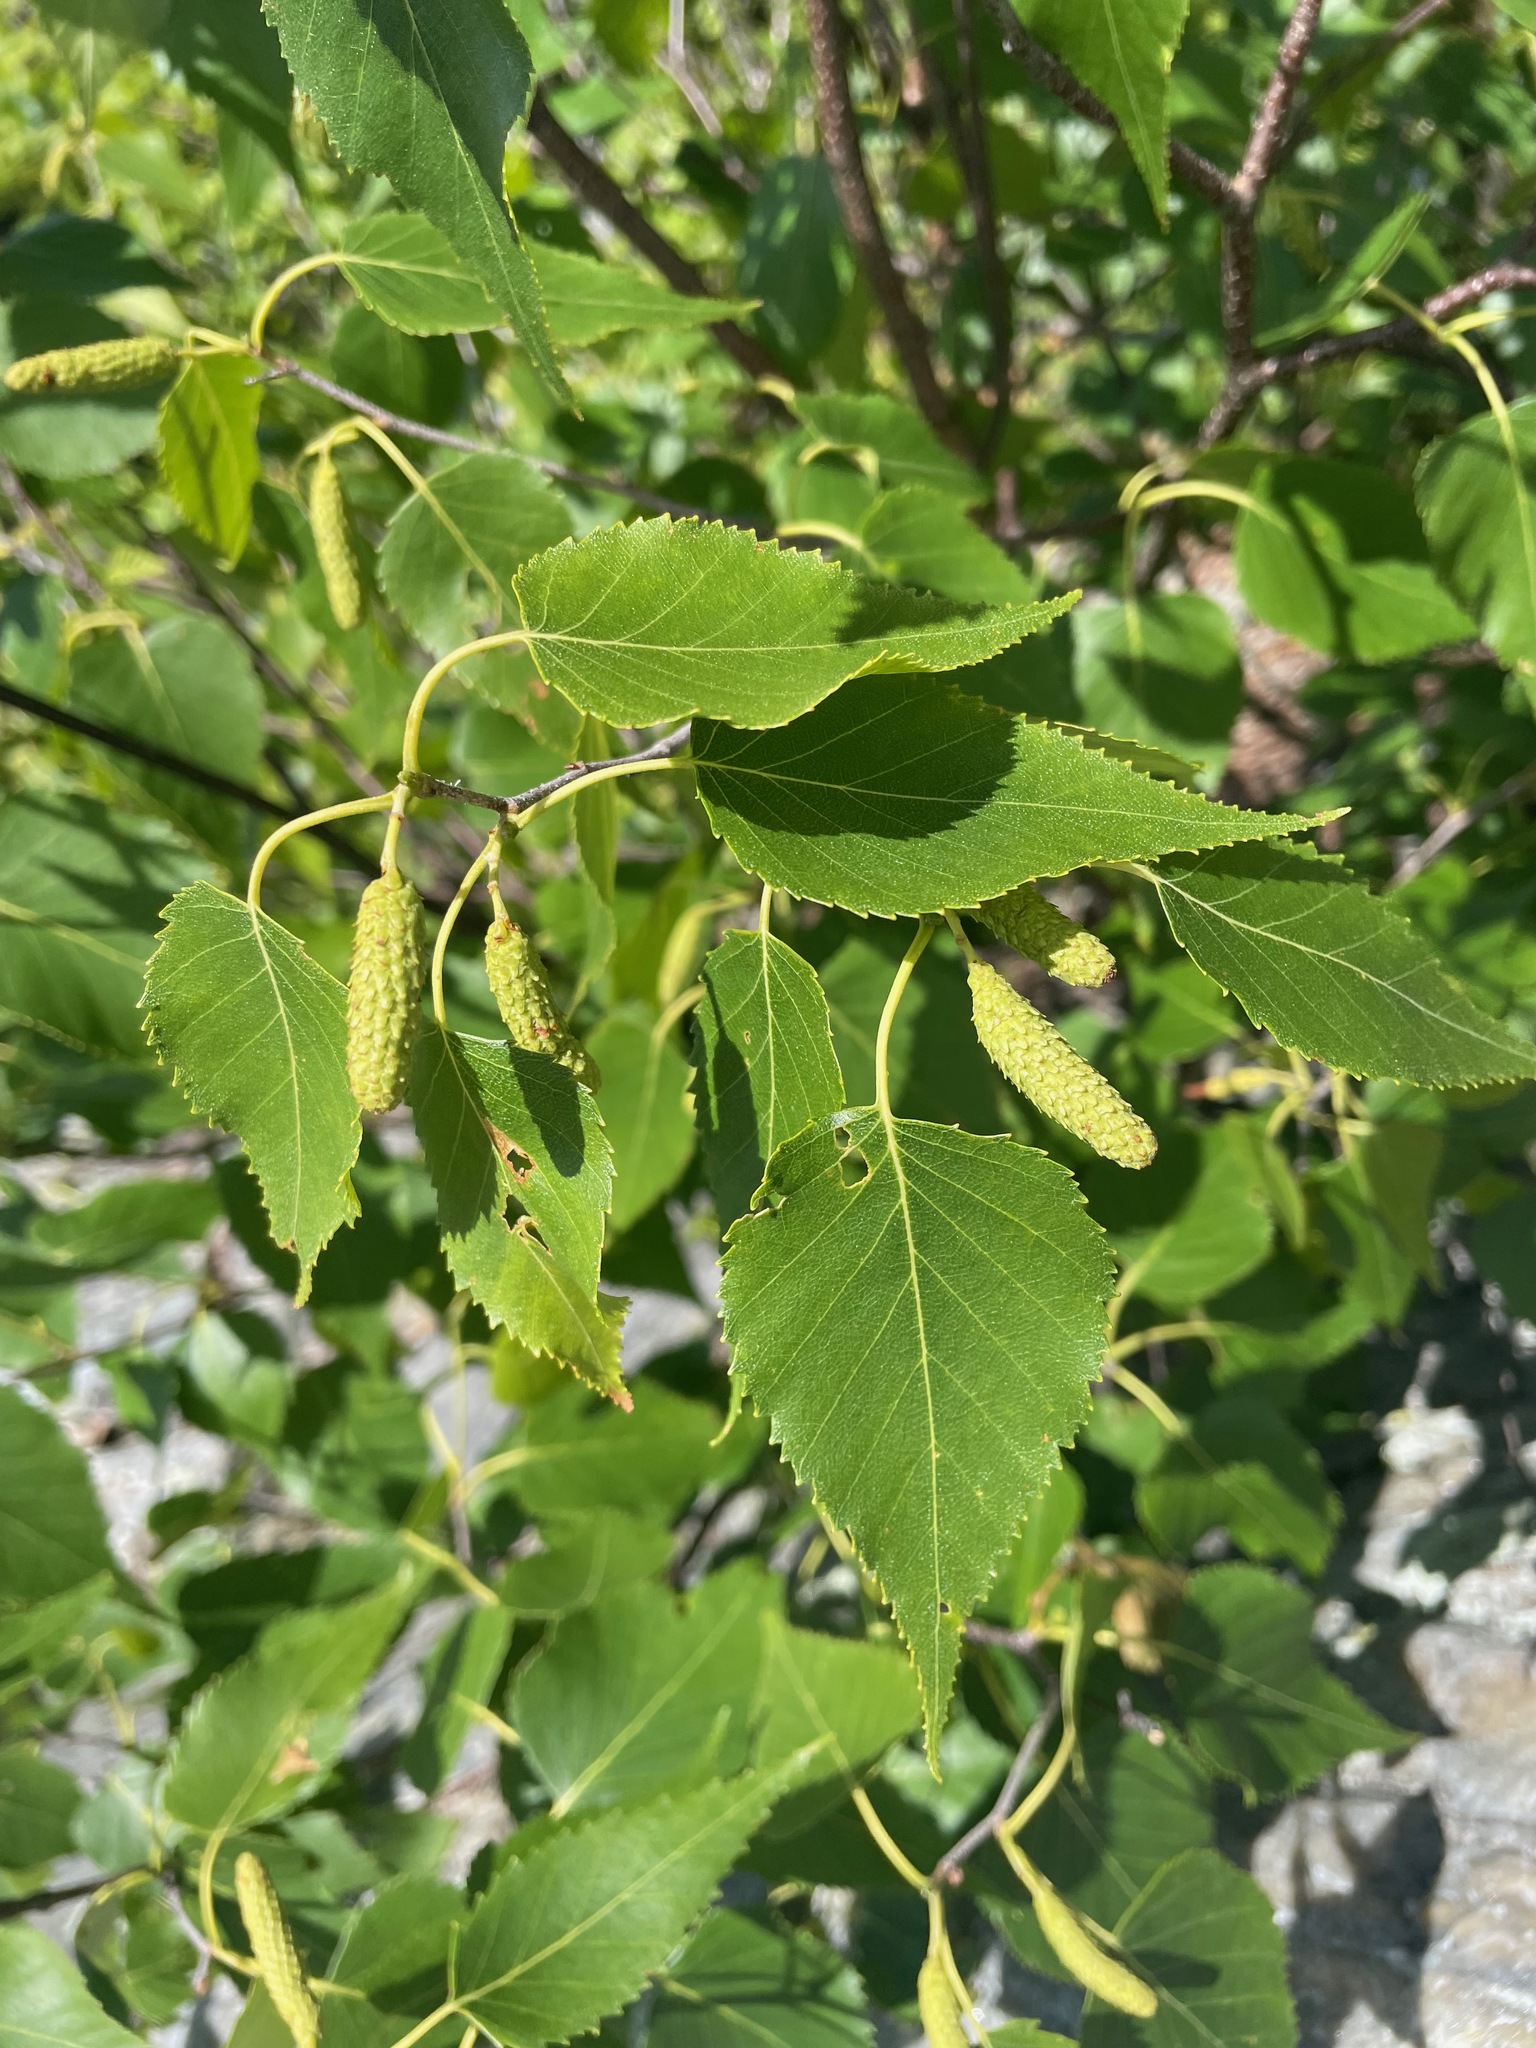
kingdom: Plantae
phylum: Tracheophyta
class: Magnoliopsida
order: Fagales
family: Betulaceae
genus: Betula
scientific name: Betula populifolia
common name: Fire birch
